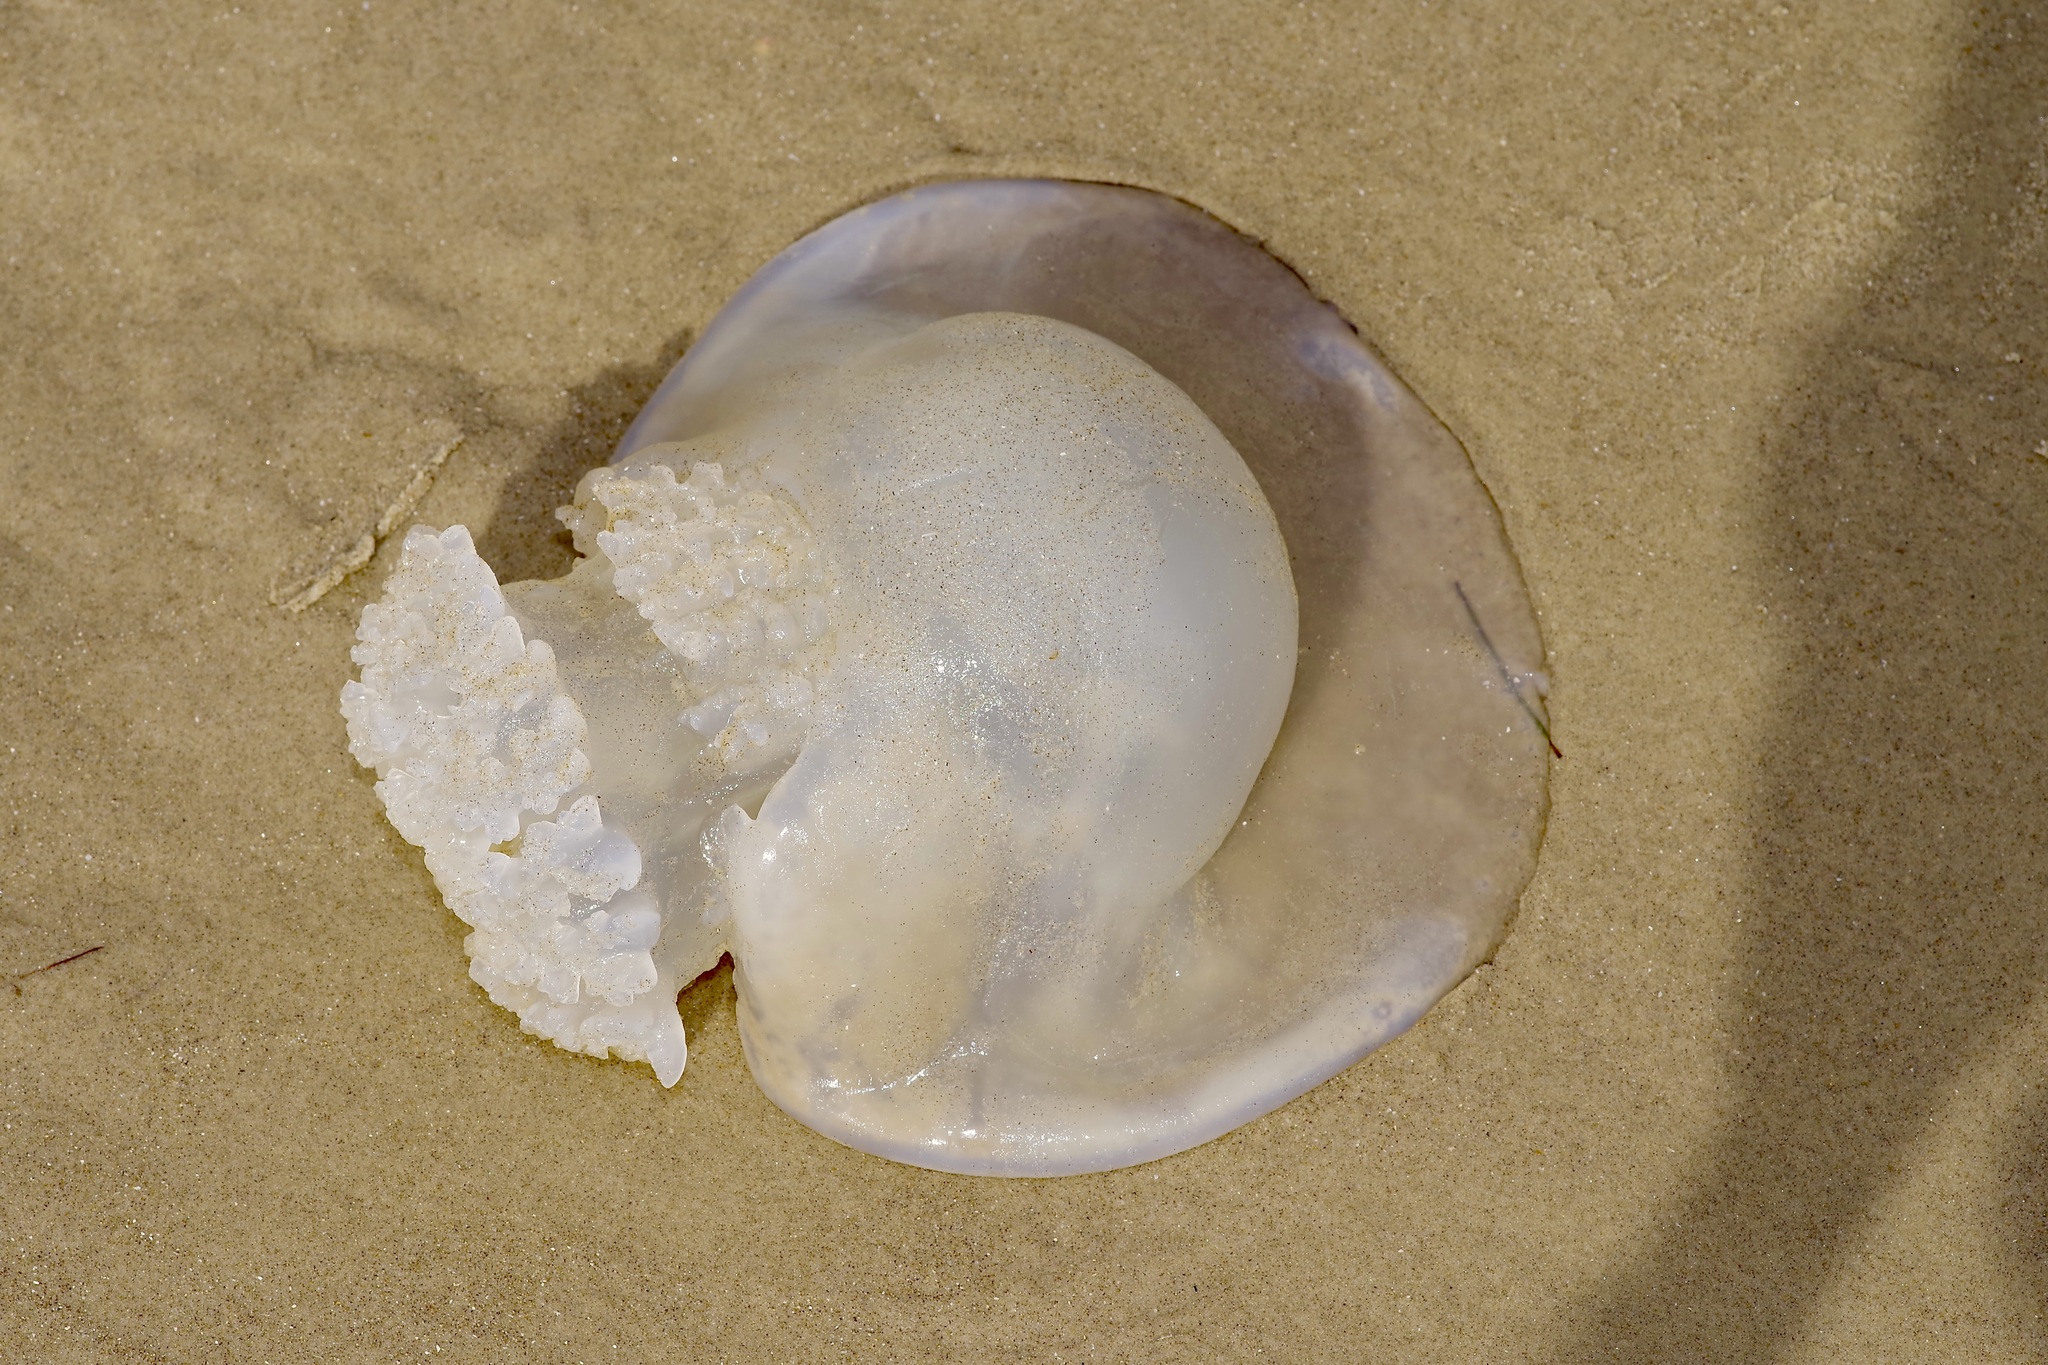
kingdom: Animalia
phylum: Cnidaria
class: Scyphozoa
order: Rhizostomeae
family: Stomolophidae
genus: Stomolophus
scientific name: Stomolophus meleagris
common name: Cabbagehead
